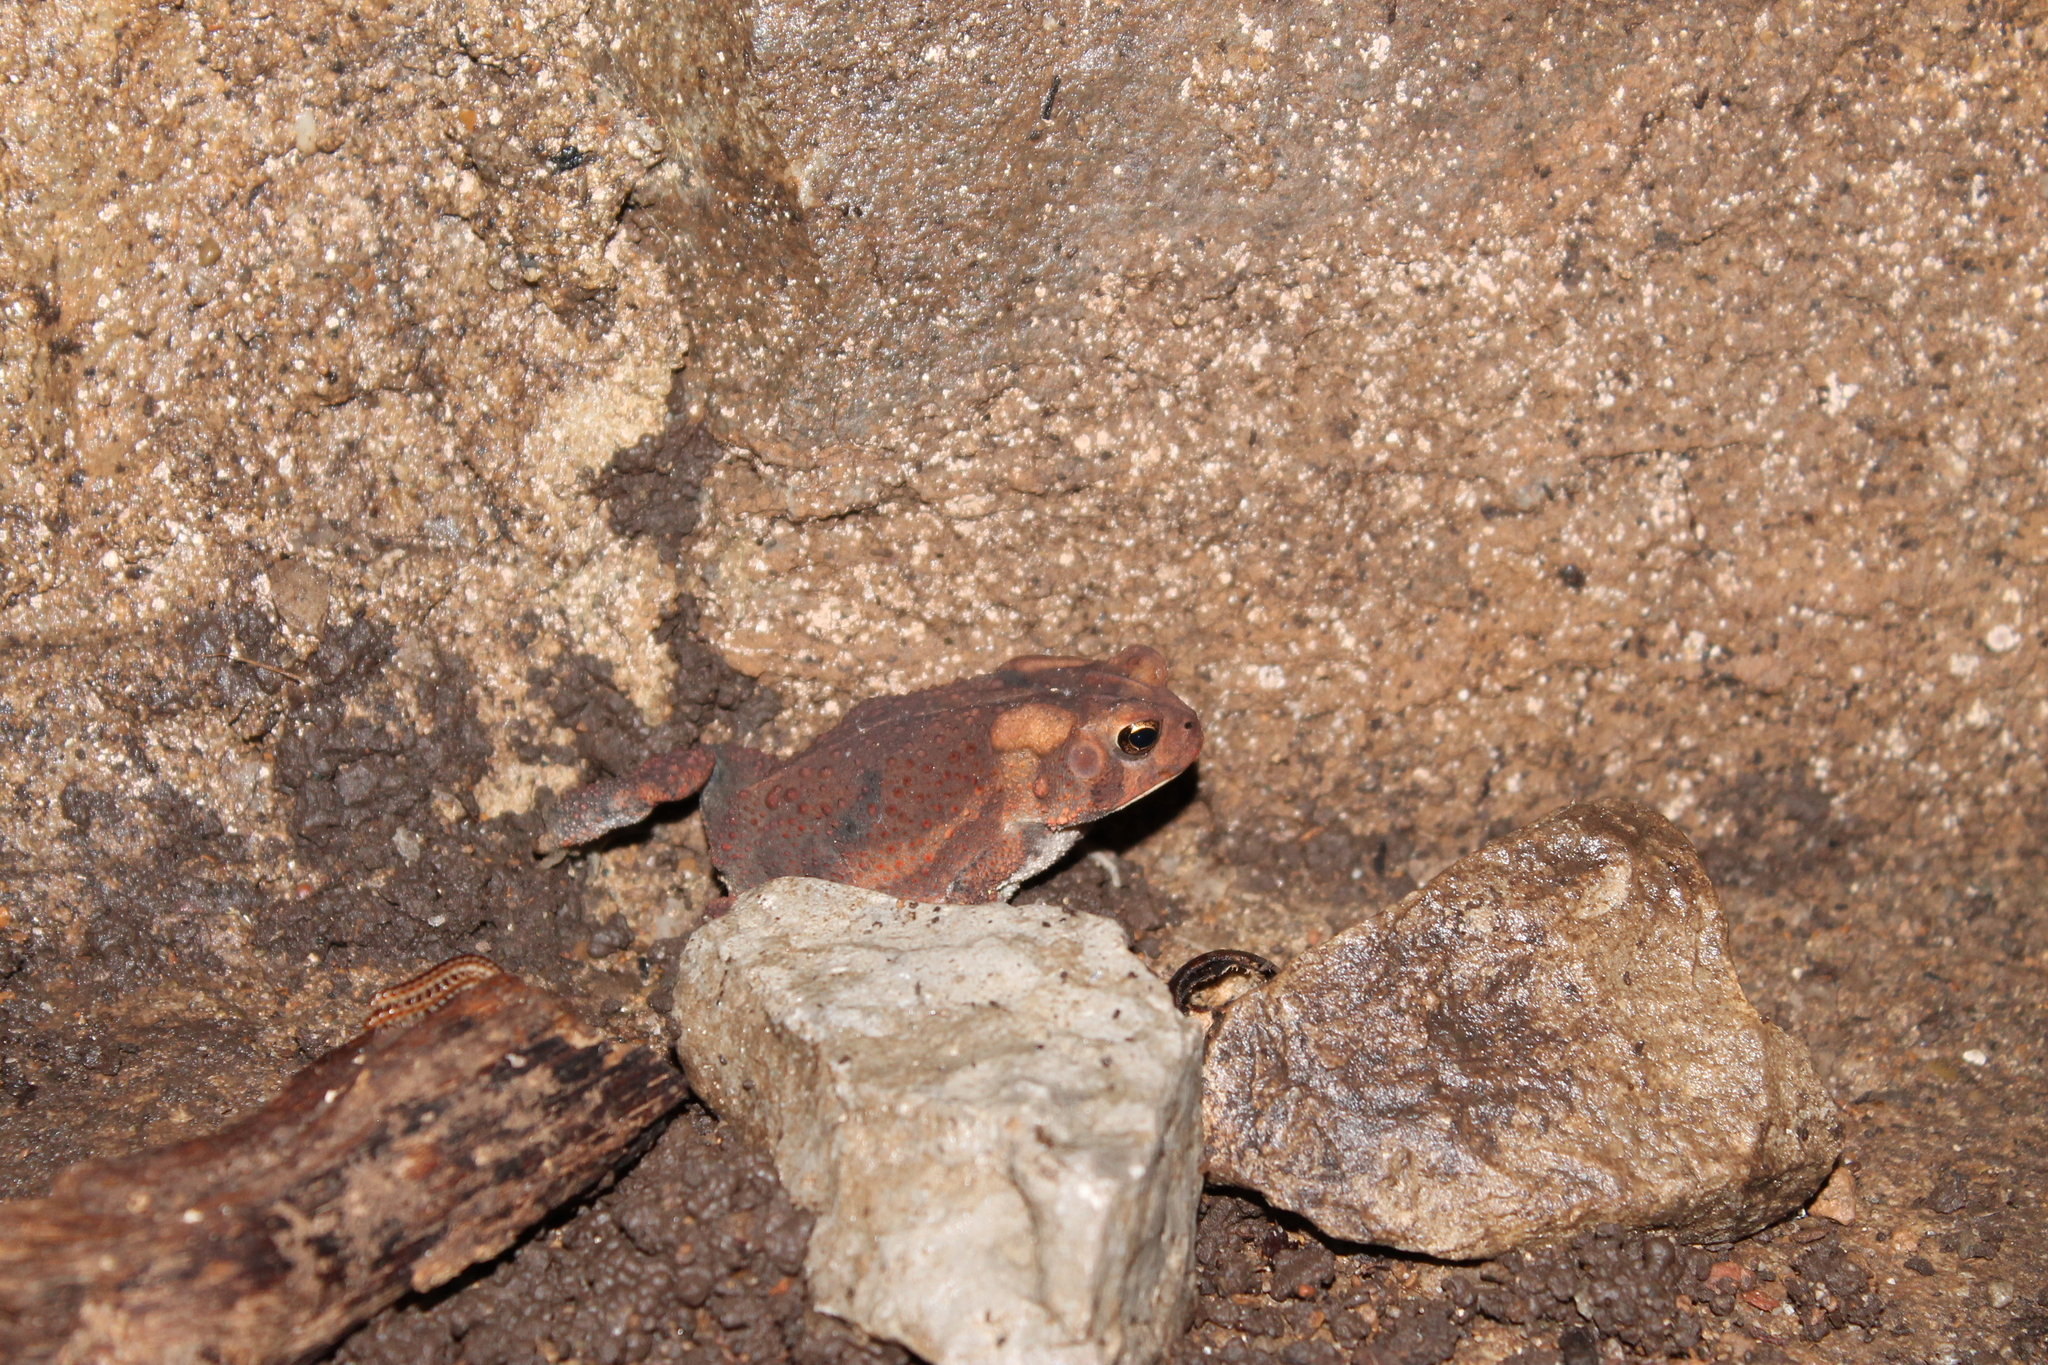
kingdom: Animalia
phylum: Chordata
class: Amphibia
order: Anura
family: Bufonidae
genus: Anaxyrus
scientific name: Anaxyrus americanus
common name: American toad
